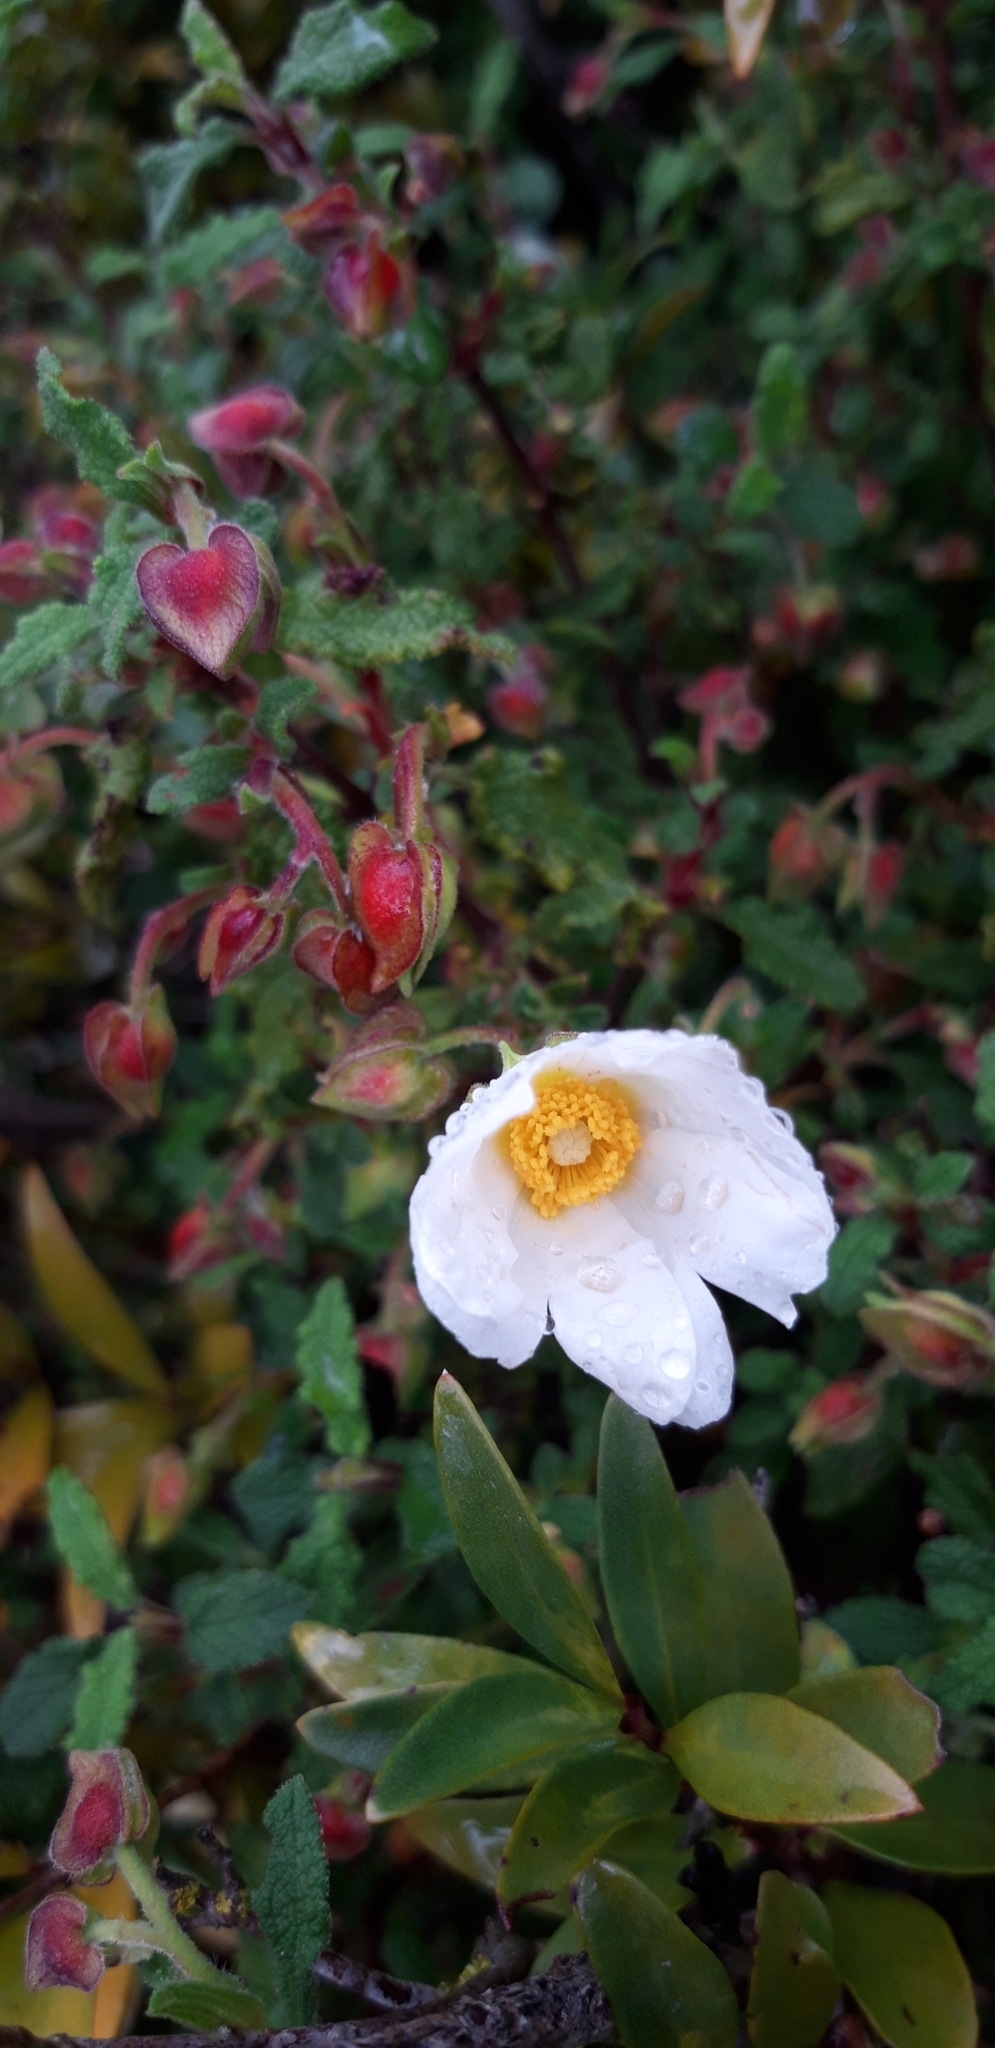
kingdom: Plantae
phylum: Tracheophyta
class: Magnoliopsida
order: Malvales
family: Cistaceae
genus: Cistus
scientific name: Cistus salviifolius
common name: Salvia cistus
